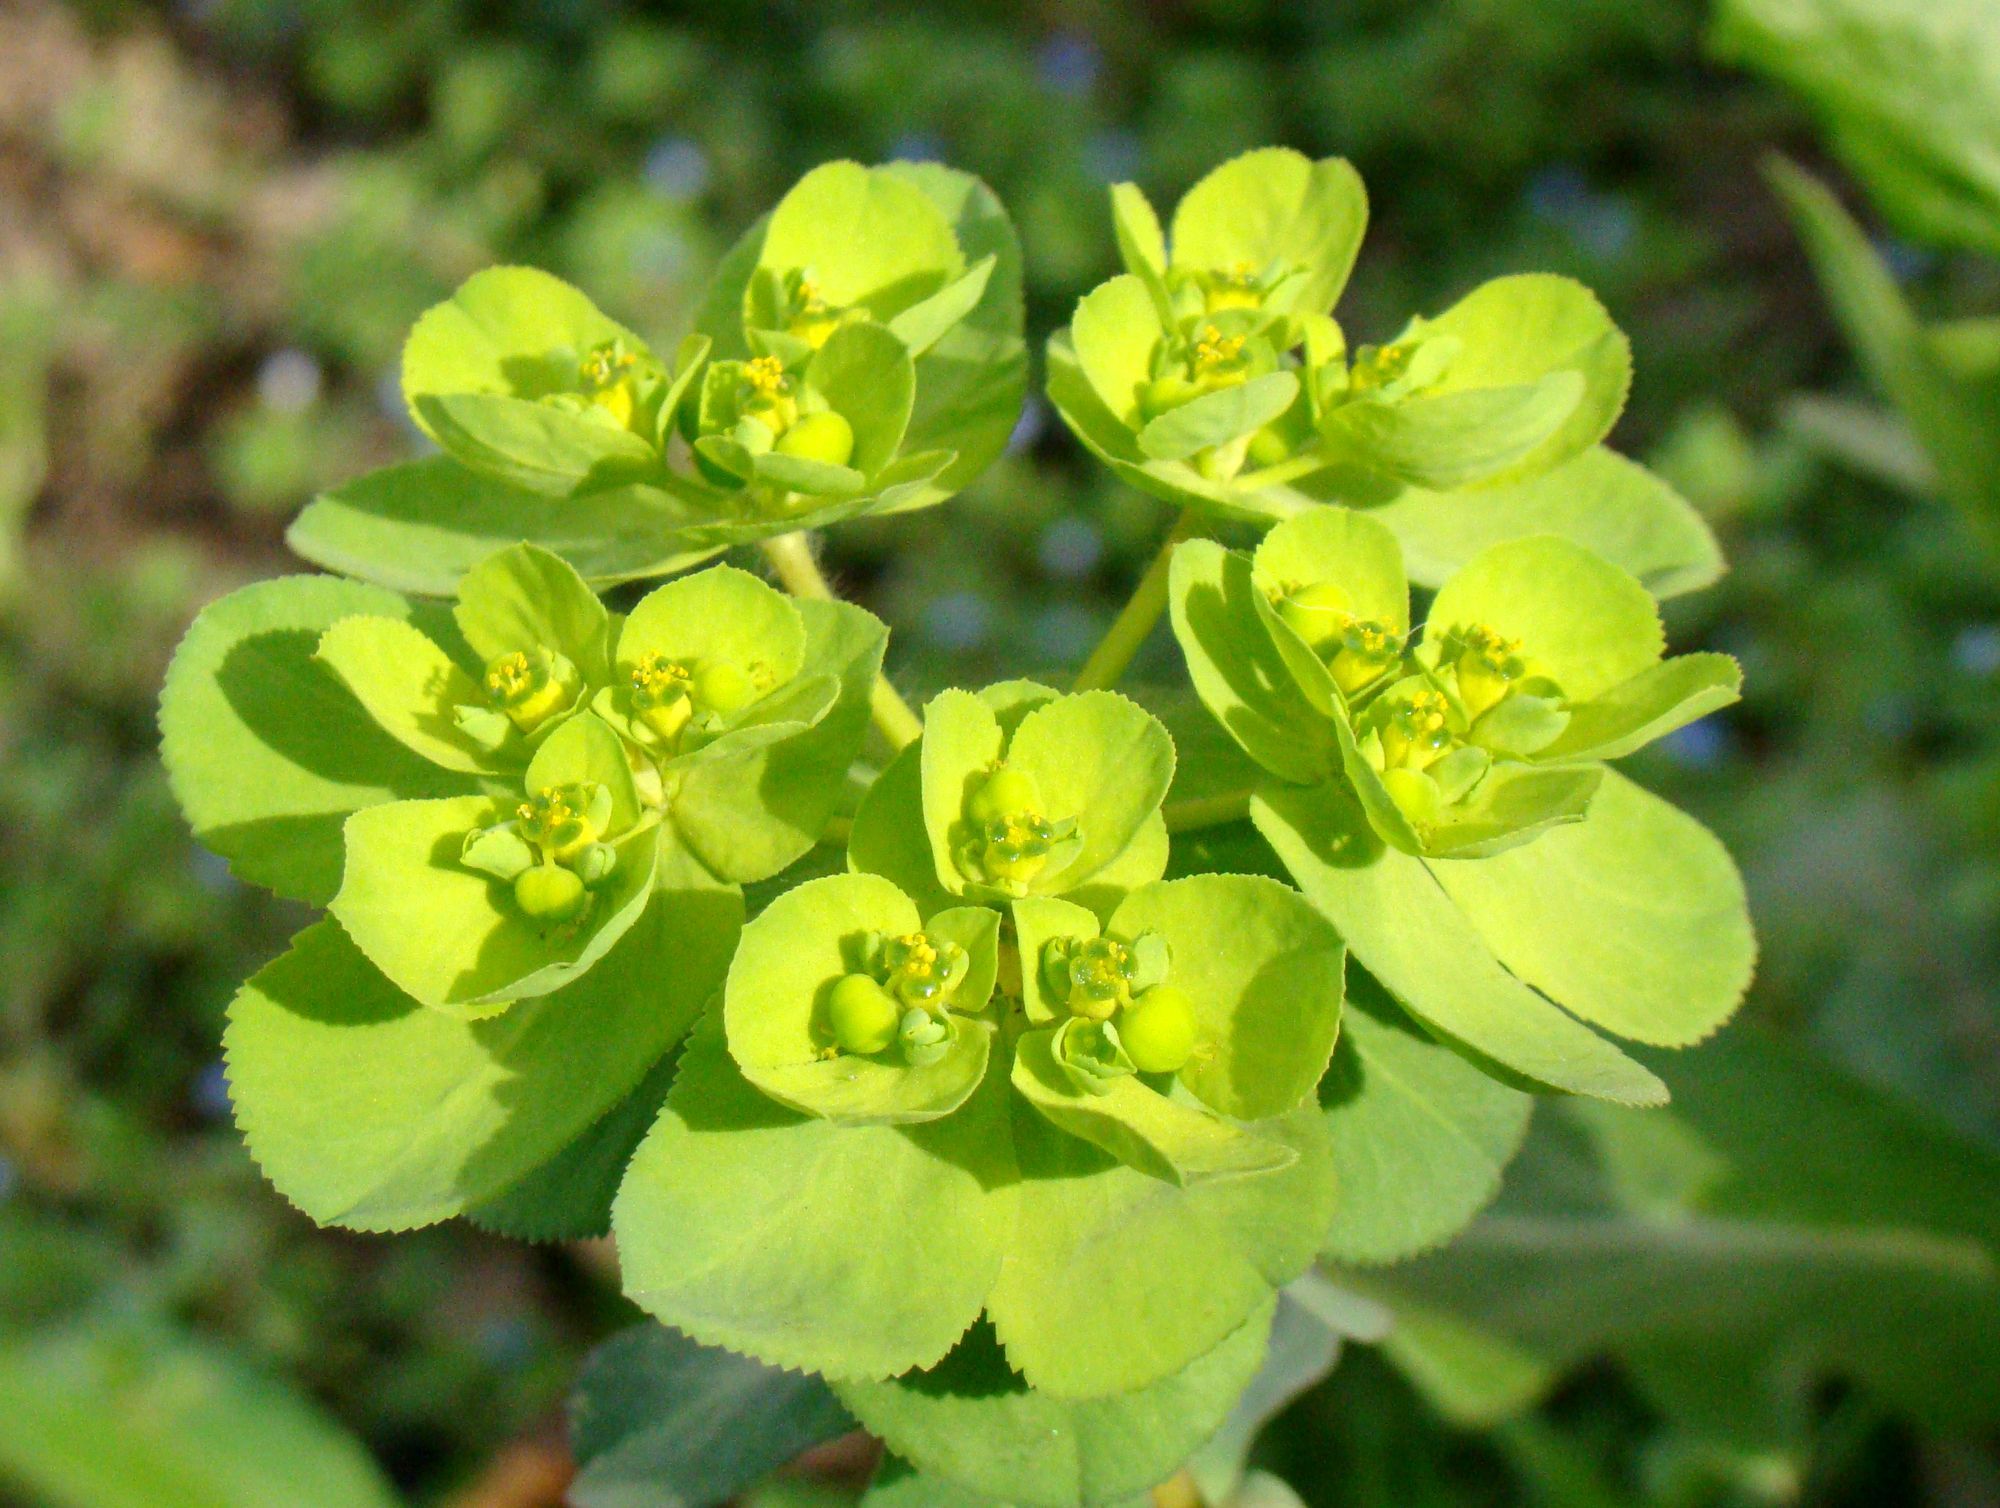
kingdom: Plantae
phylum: Tracheophyta
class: Magnoliopsida
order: Malpighiales
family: Euphorbiaceae
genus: Euphorbia
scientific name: Euphorbia helioscopia
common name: Sun spurge
